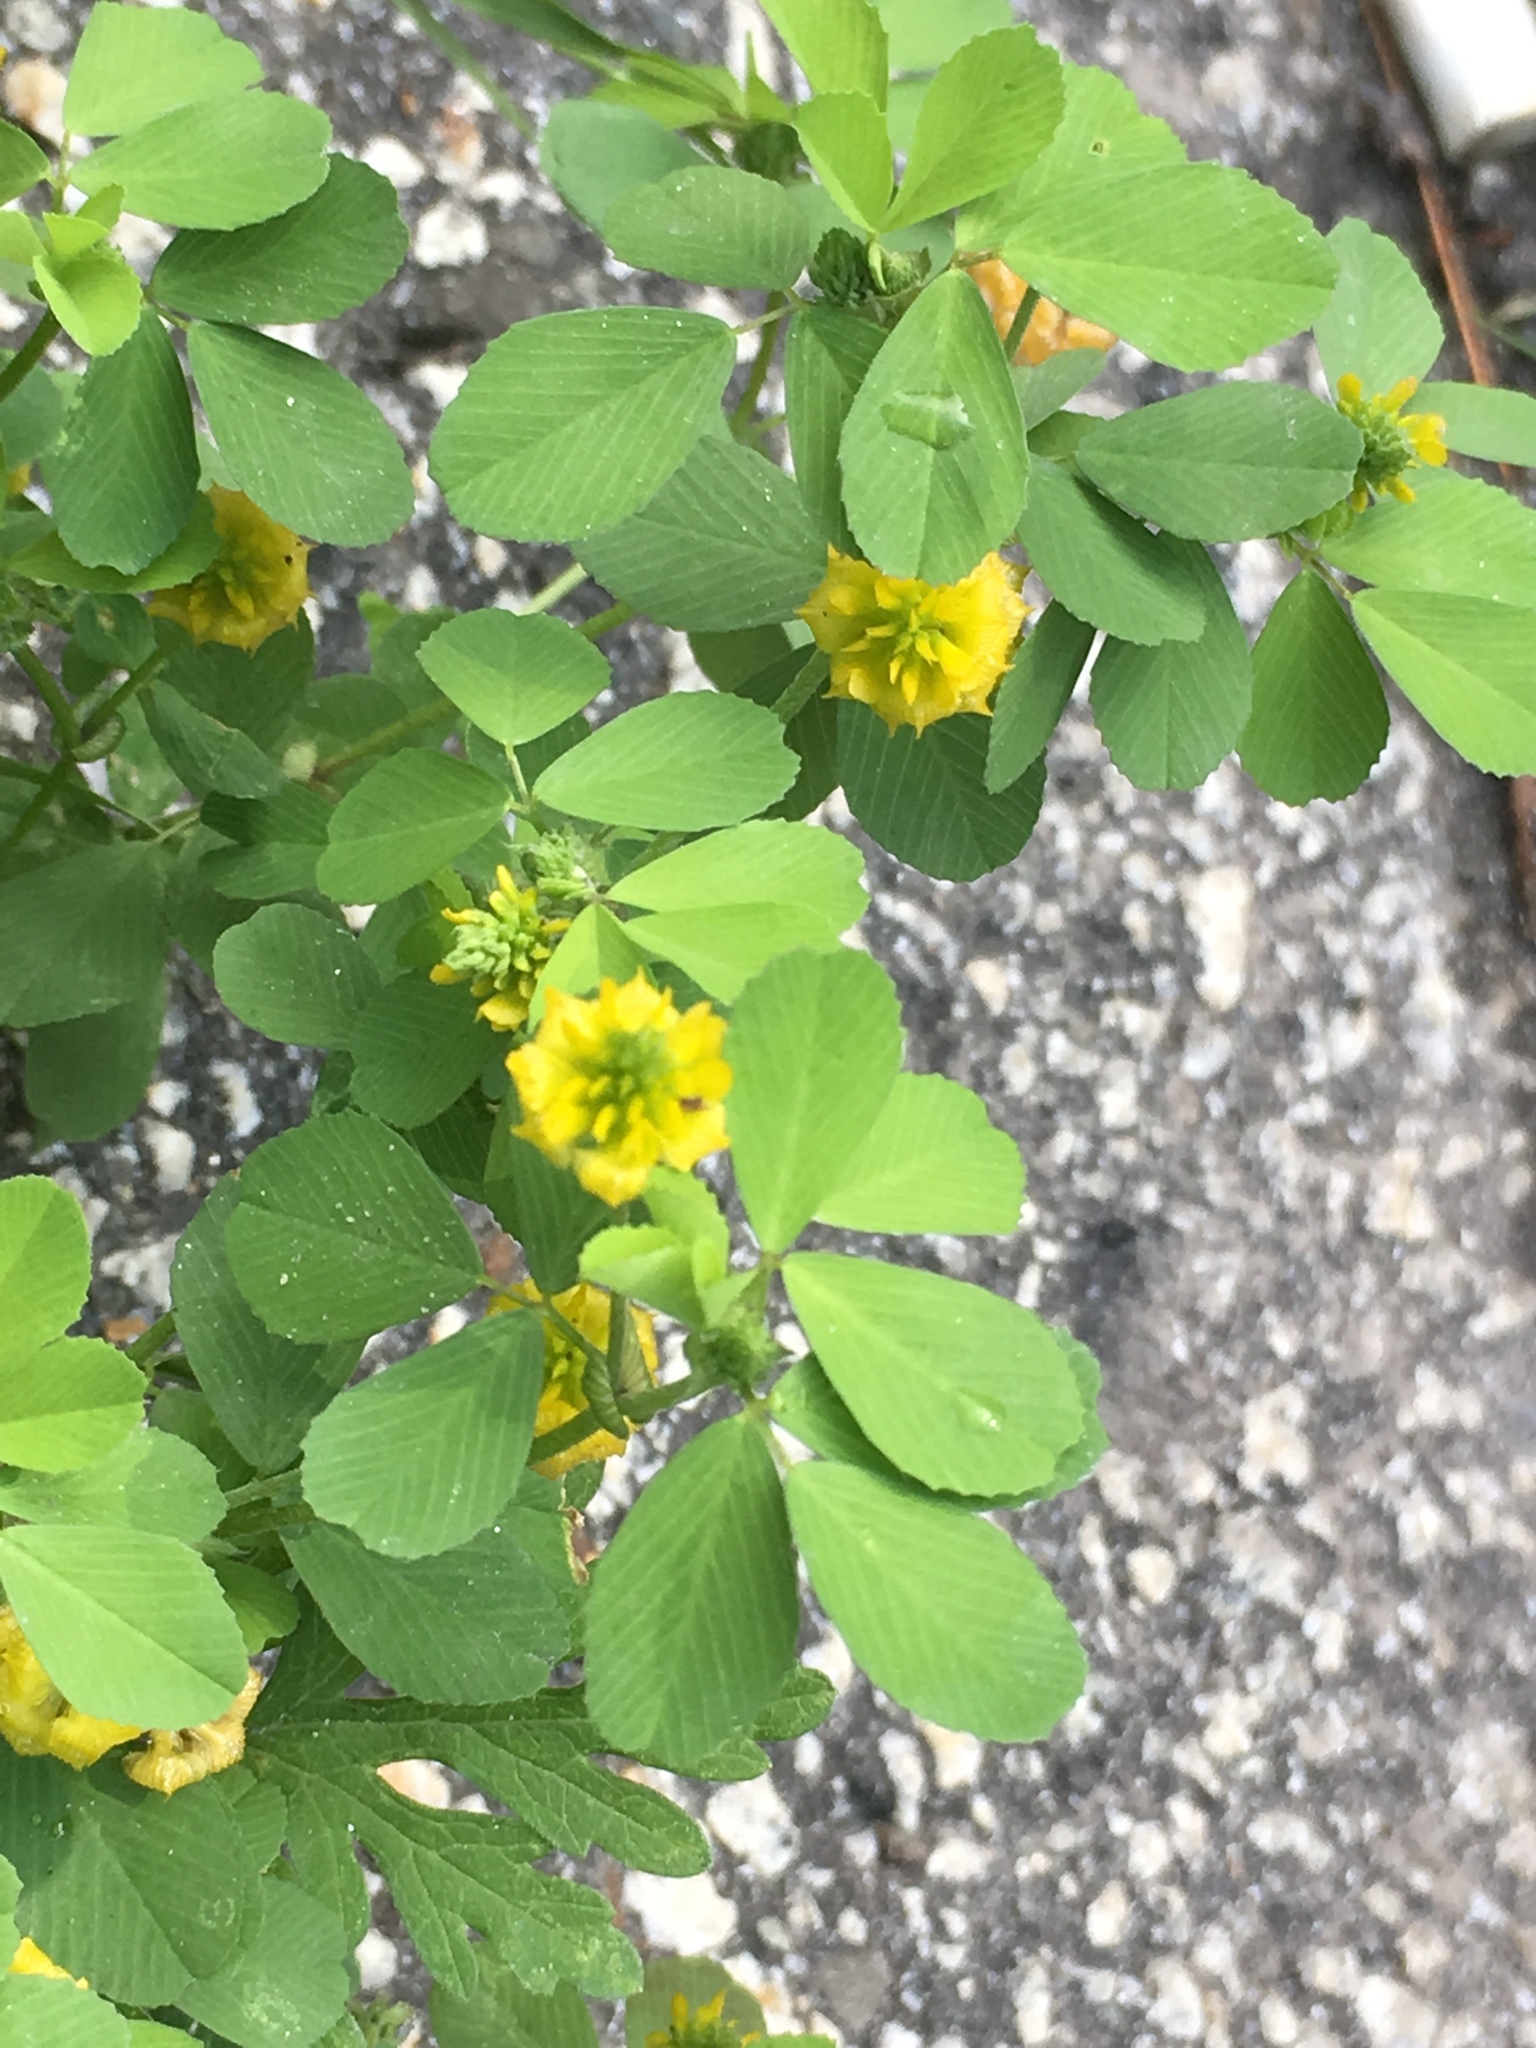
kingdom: Plantae
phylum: Tracheophyta
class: Magnoliopsida
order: Fabales
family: Fabaceae
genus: Trifolium
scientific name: Trifolium campestre
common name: Field clover
